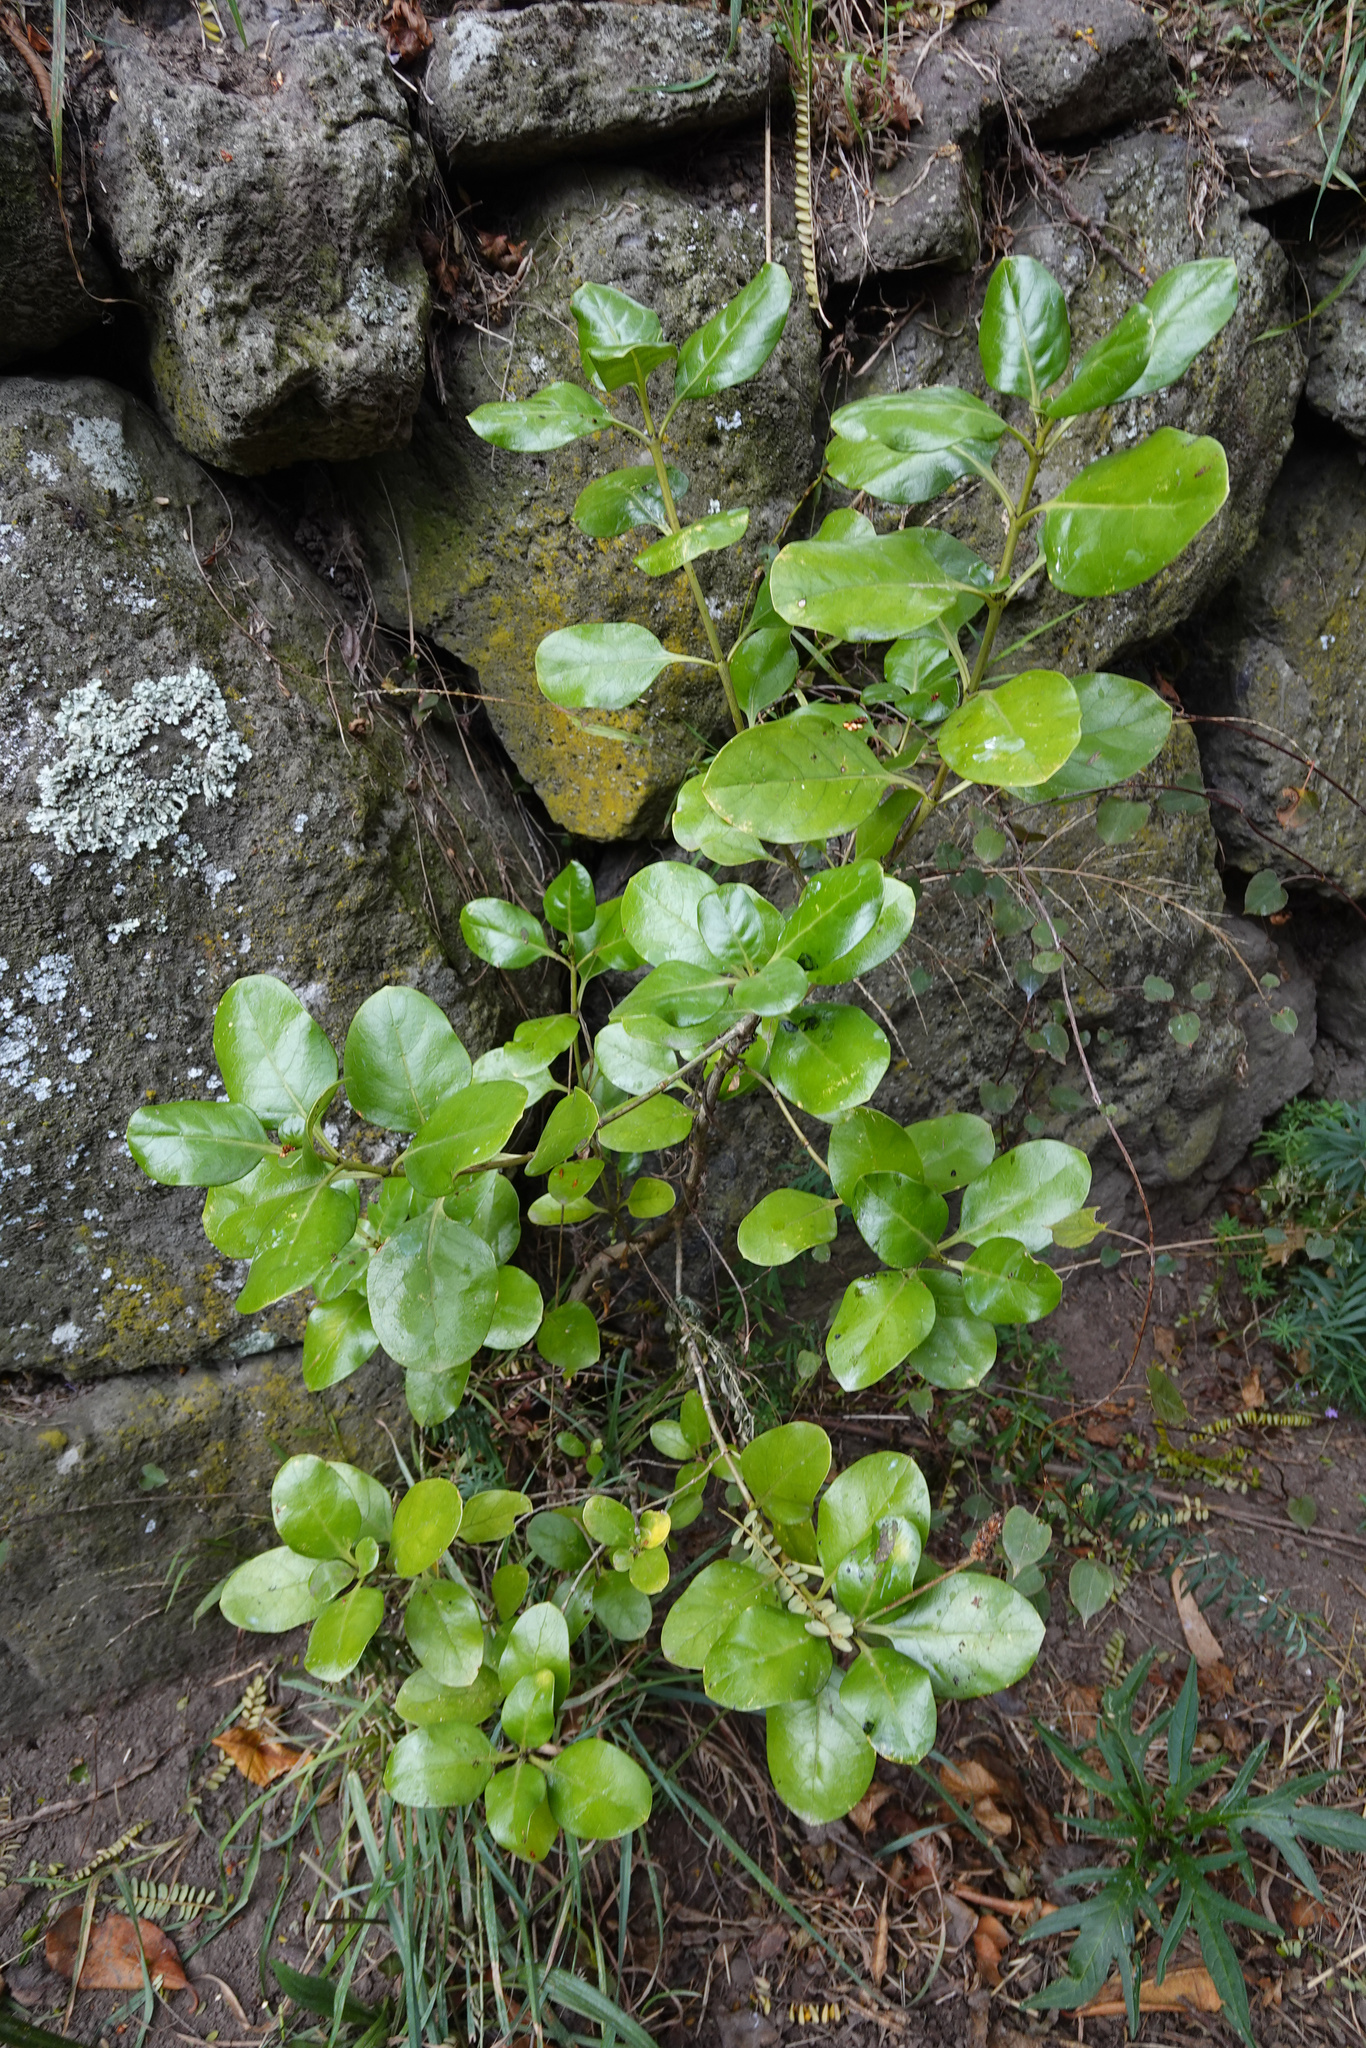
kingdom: Plantae
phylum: Tracheophyta
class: Magnoliopsida
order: Gentianales
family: Rubiaceae
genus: Coprosma
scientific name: Coprosma repens
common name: Tree bedstraw
